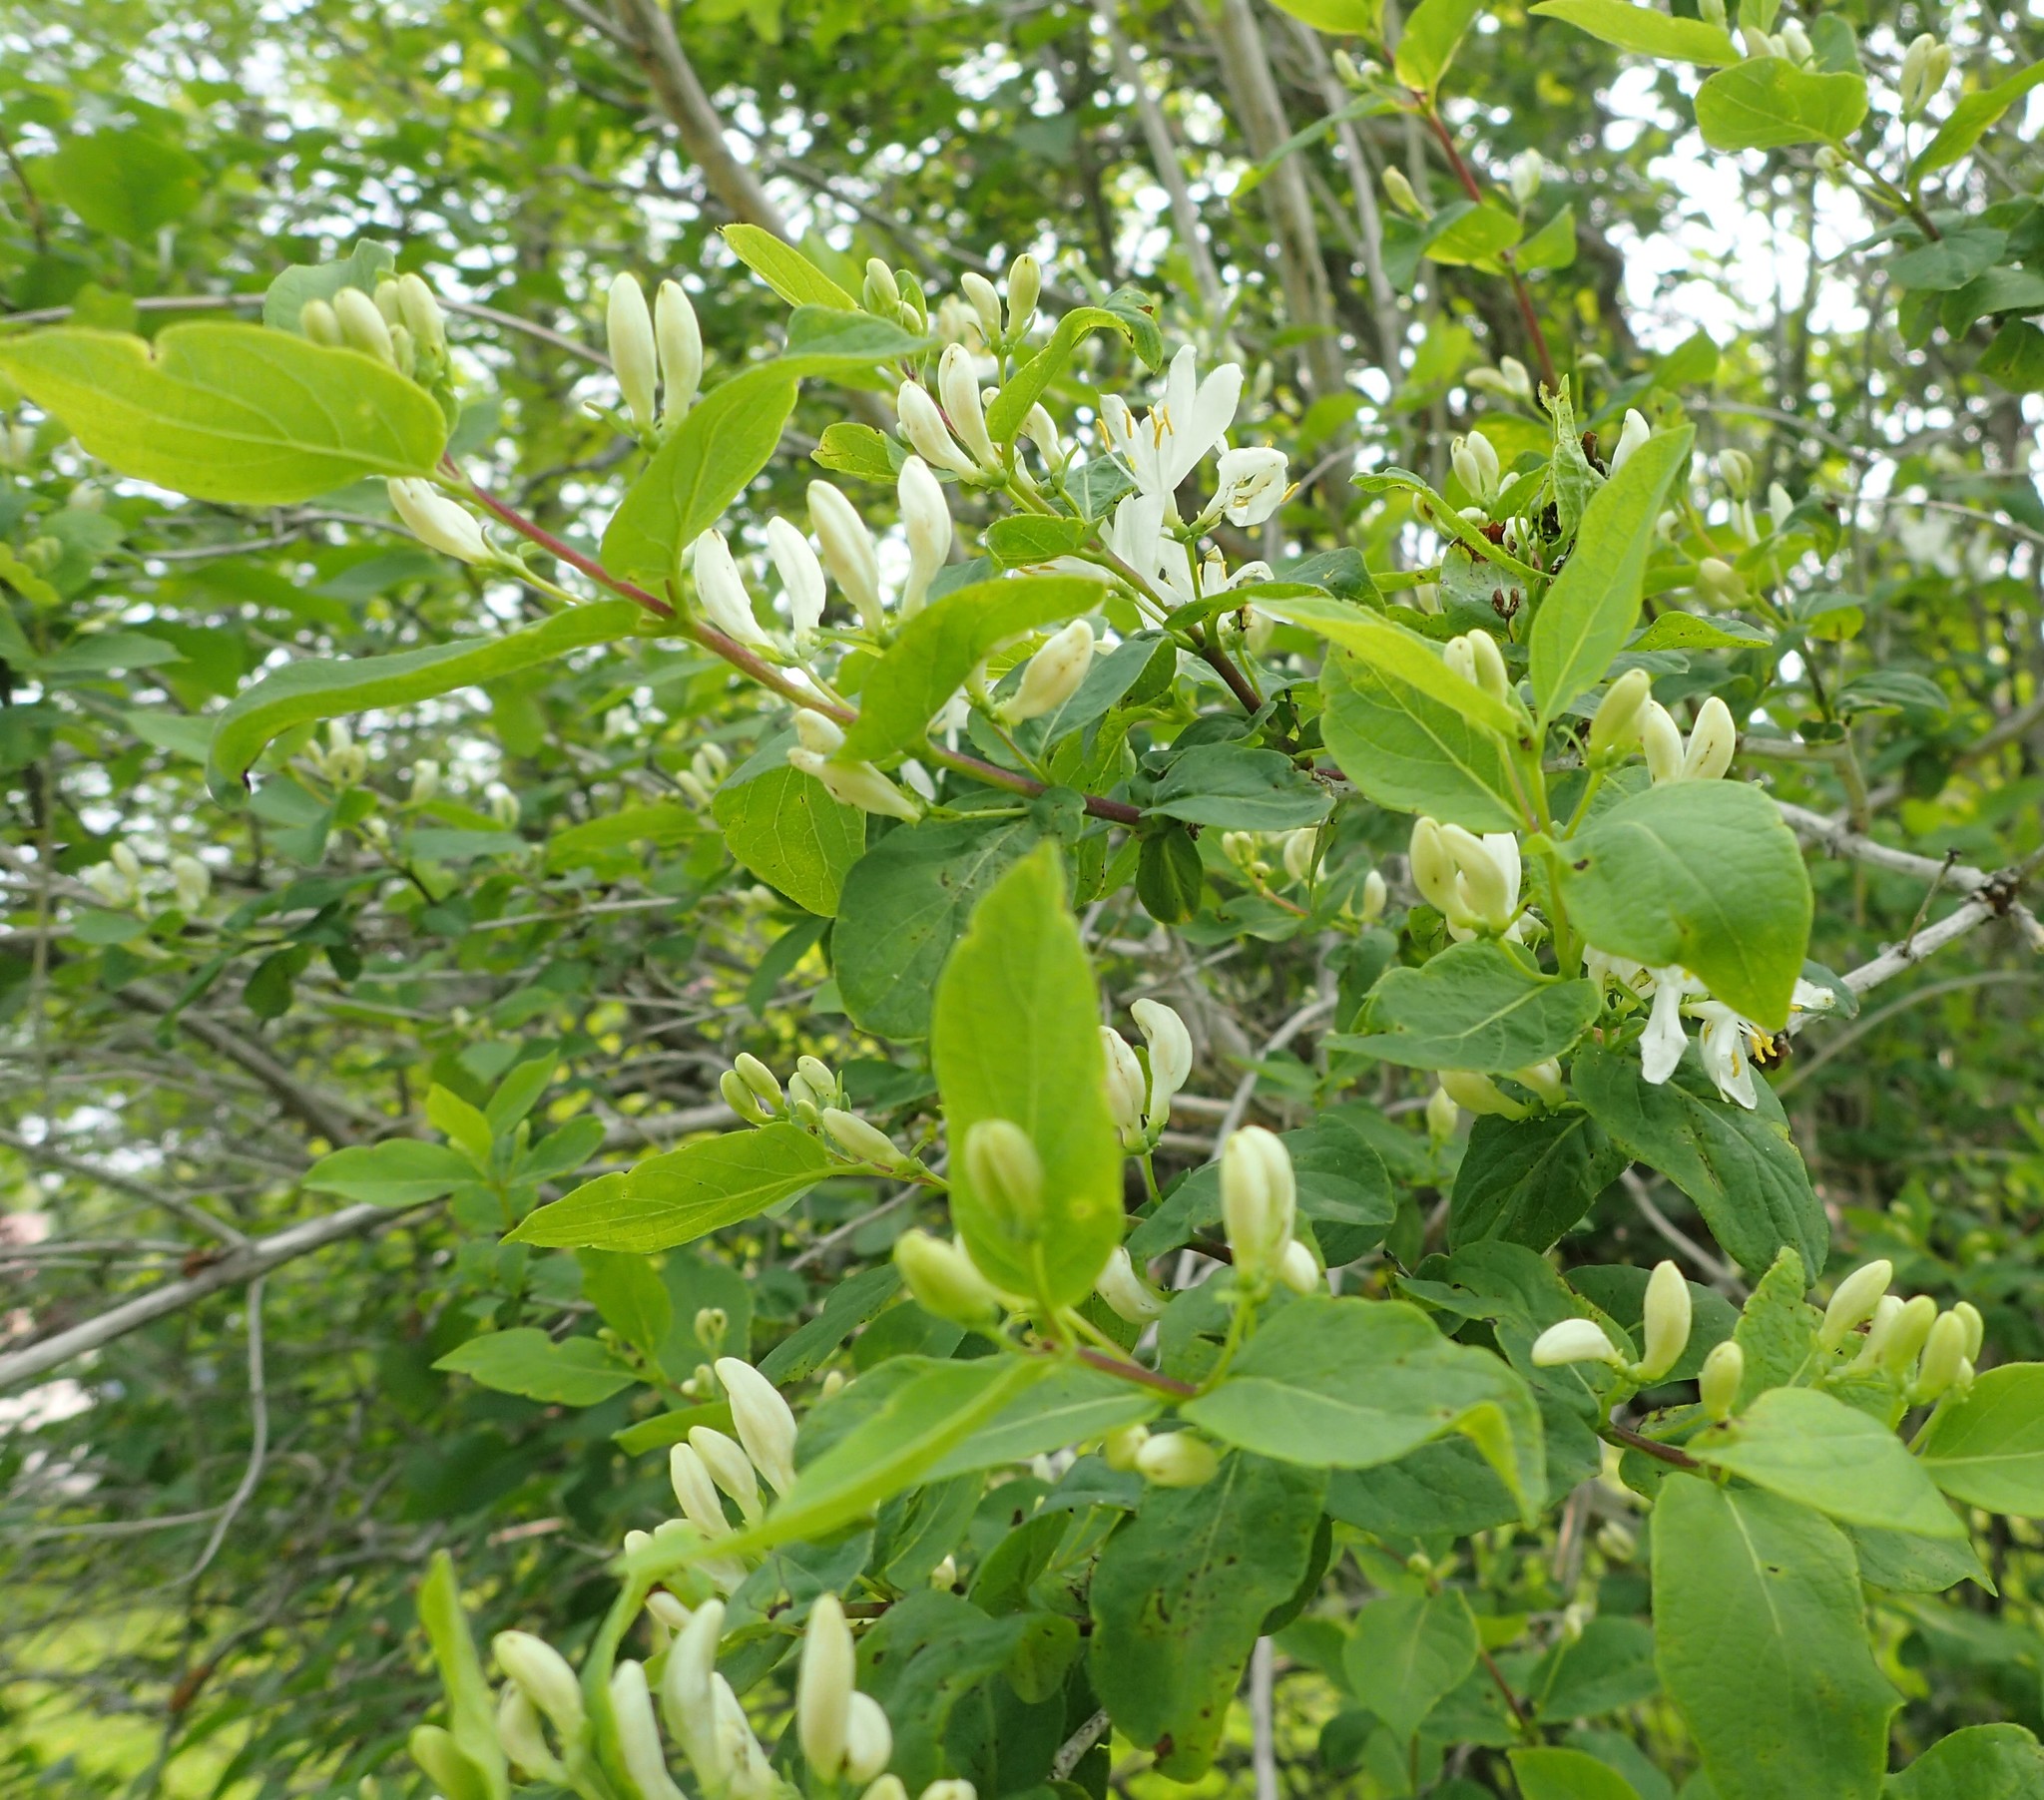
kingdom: Plantae
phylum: Tracheophyta
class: Magnoliopsida
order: Dipsacales
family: Caprifoliaceae
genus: Lonicera
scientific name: Lonicera tatarica
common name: Tatarian honeysuckle
